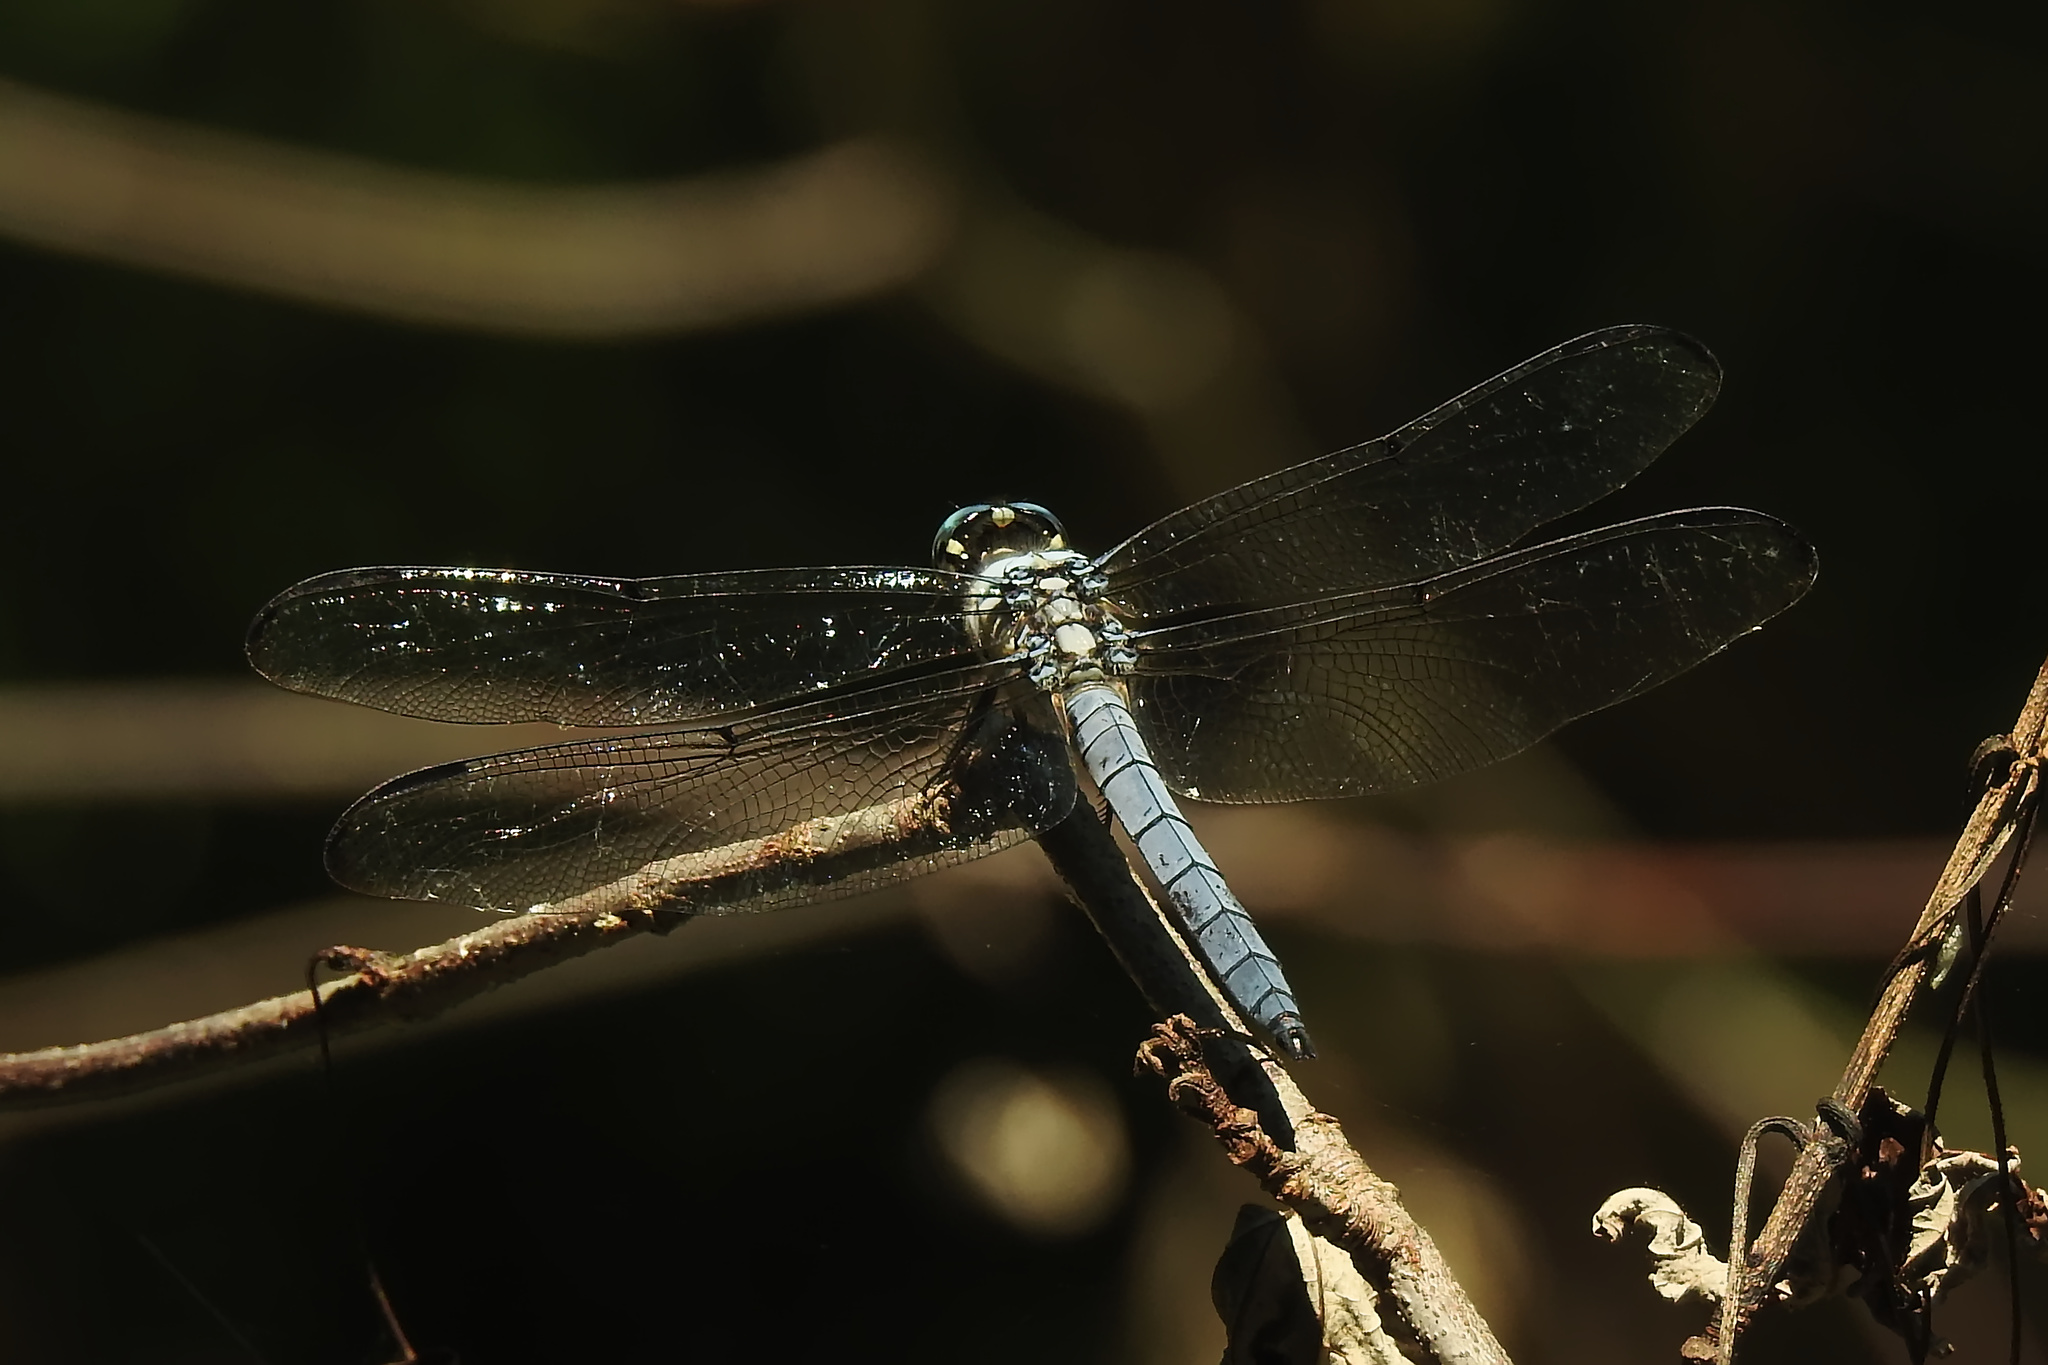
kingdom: Animalia
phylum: Arthropoda
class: Insecta
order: Odonata
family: Libellulidae
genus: Libellula
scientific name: Libellula vibrans
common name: Great blue skimmer
